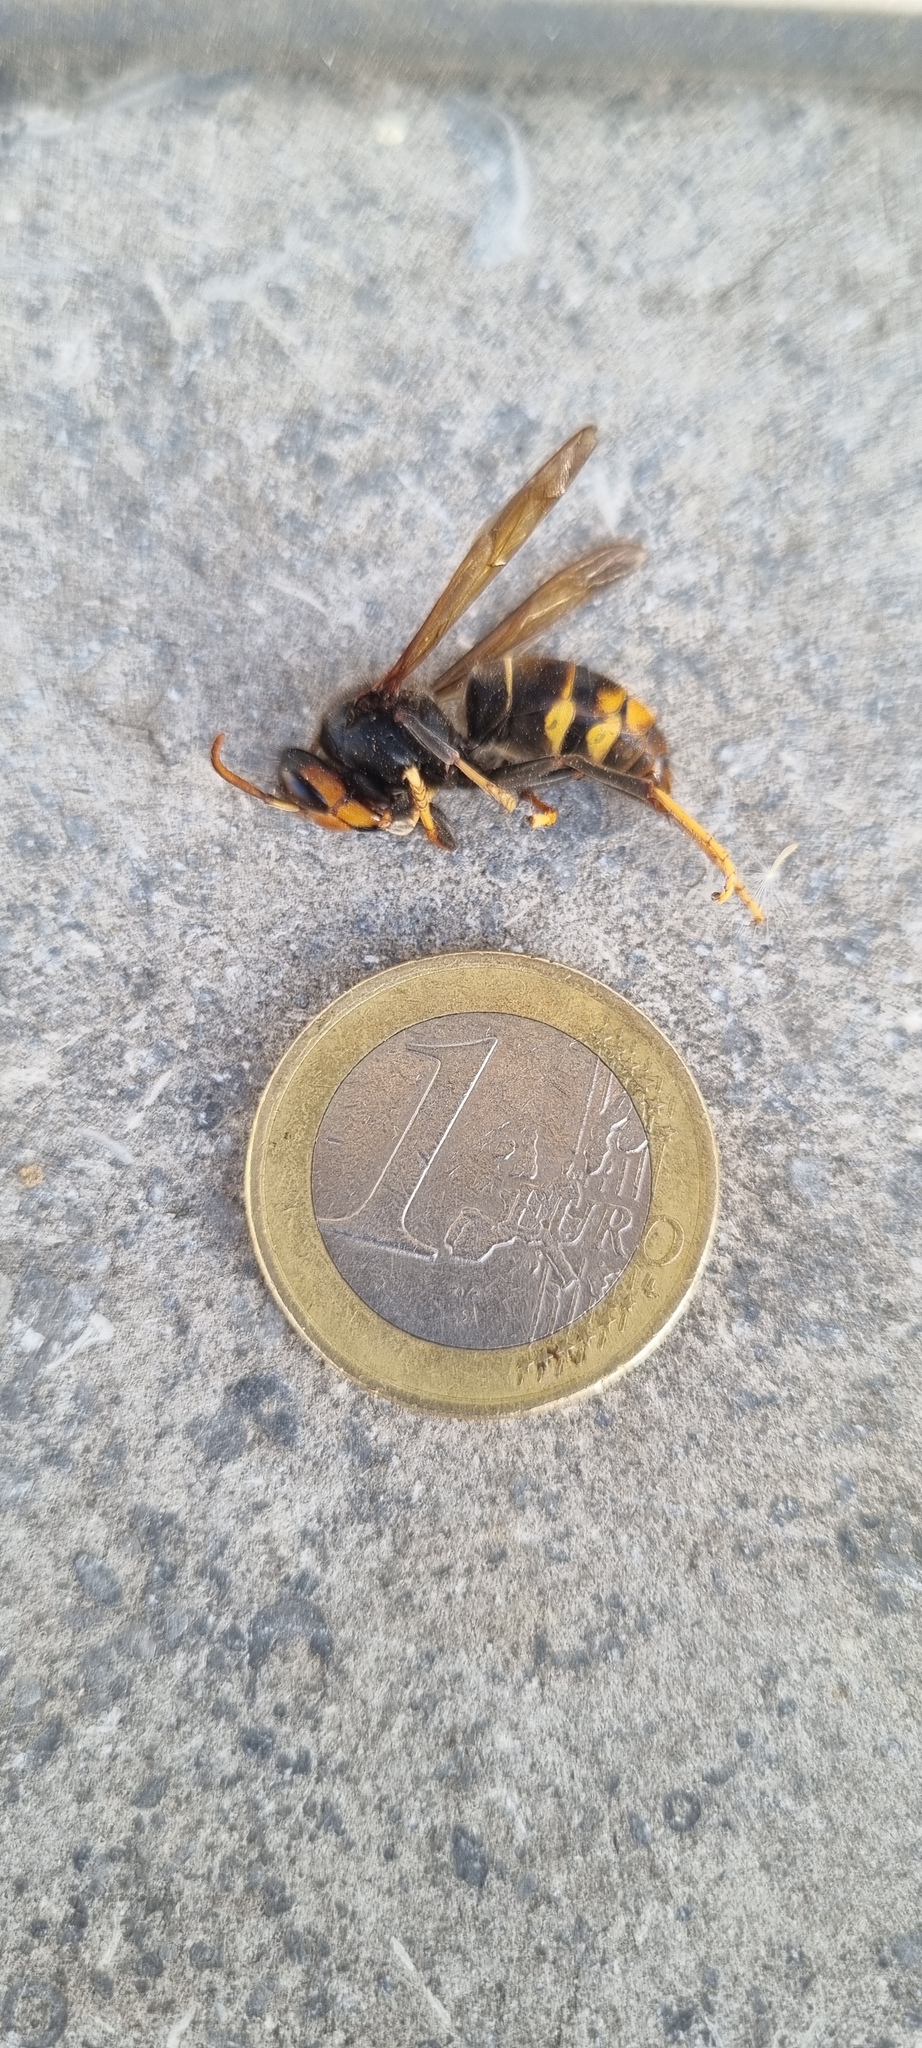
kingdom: Animalia
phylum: Arthropoda
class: Insecta
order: Hymenoptera
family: Vespidae
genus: Vespa
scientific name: Vespa velutina
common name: Asian hornet
